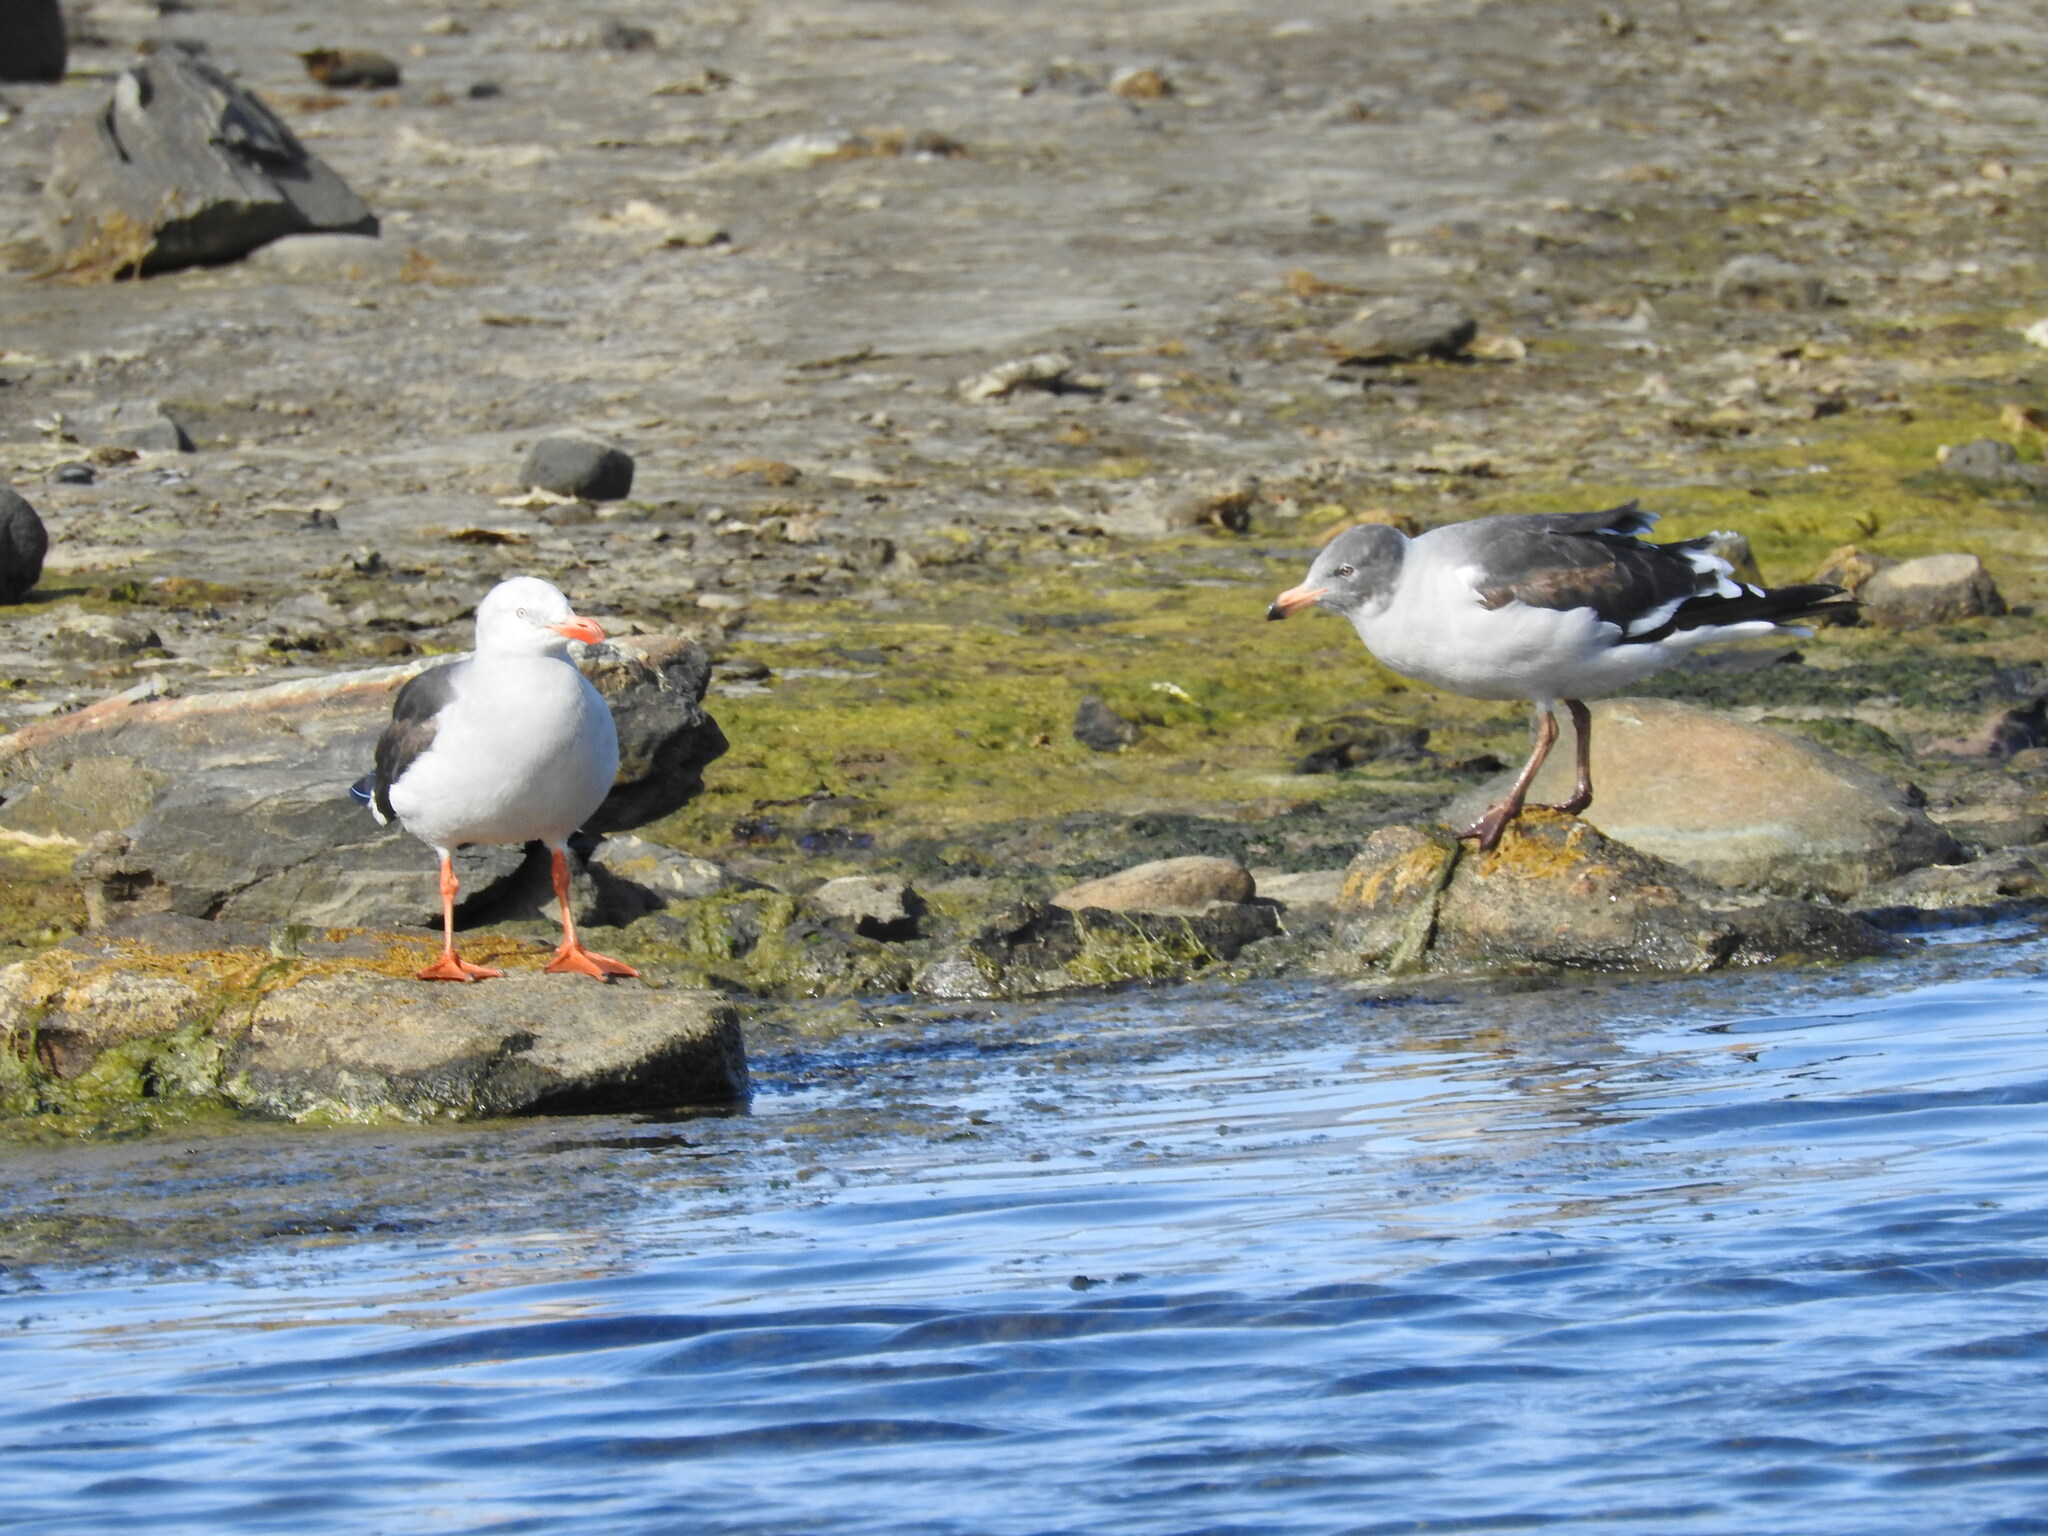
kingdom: Animalia
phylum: Chordata
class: Aves
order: Charadriiformes
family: Laridae
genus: Leucophaeus
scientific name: Leucophaeus scoresbii
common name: Dolphin gull
